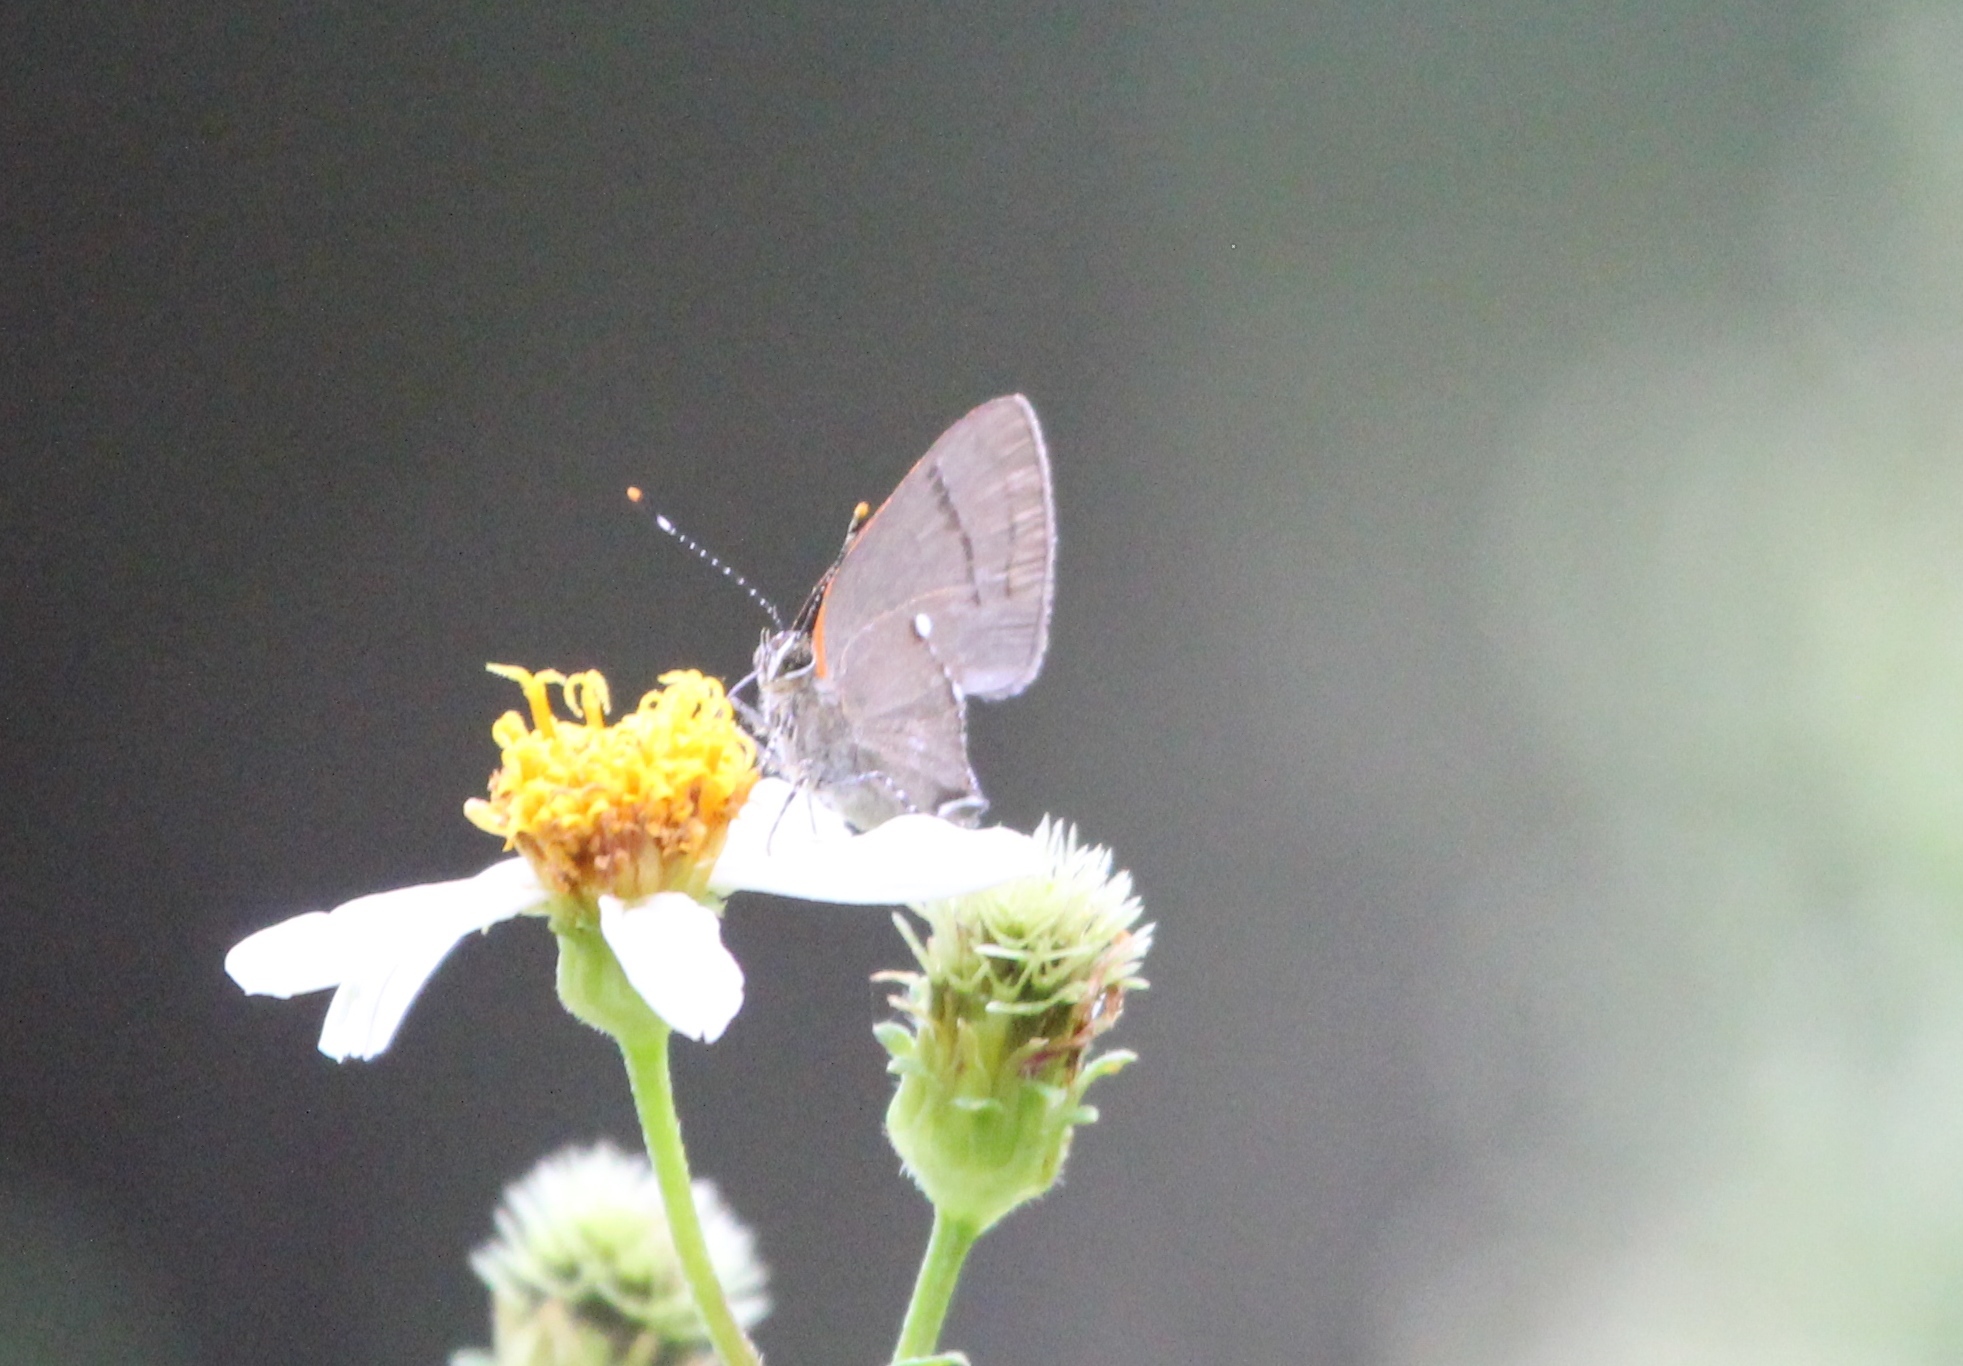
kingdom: Animalia
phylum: Arthropoda
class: Insecta
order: Lepidoptera
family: Lycaenidae
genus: Thecla
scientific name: Thecla angelia
